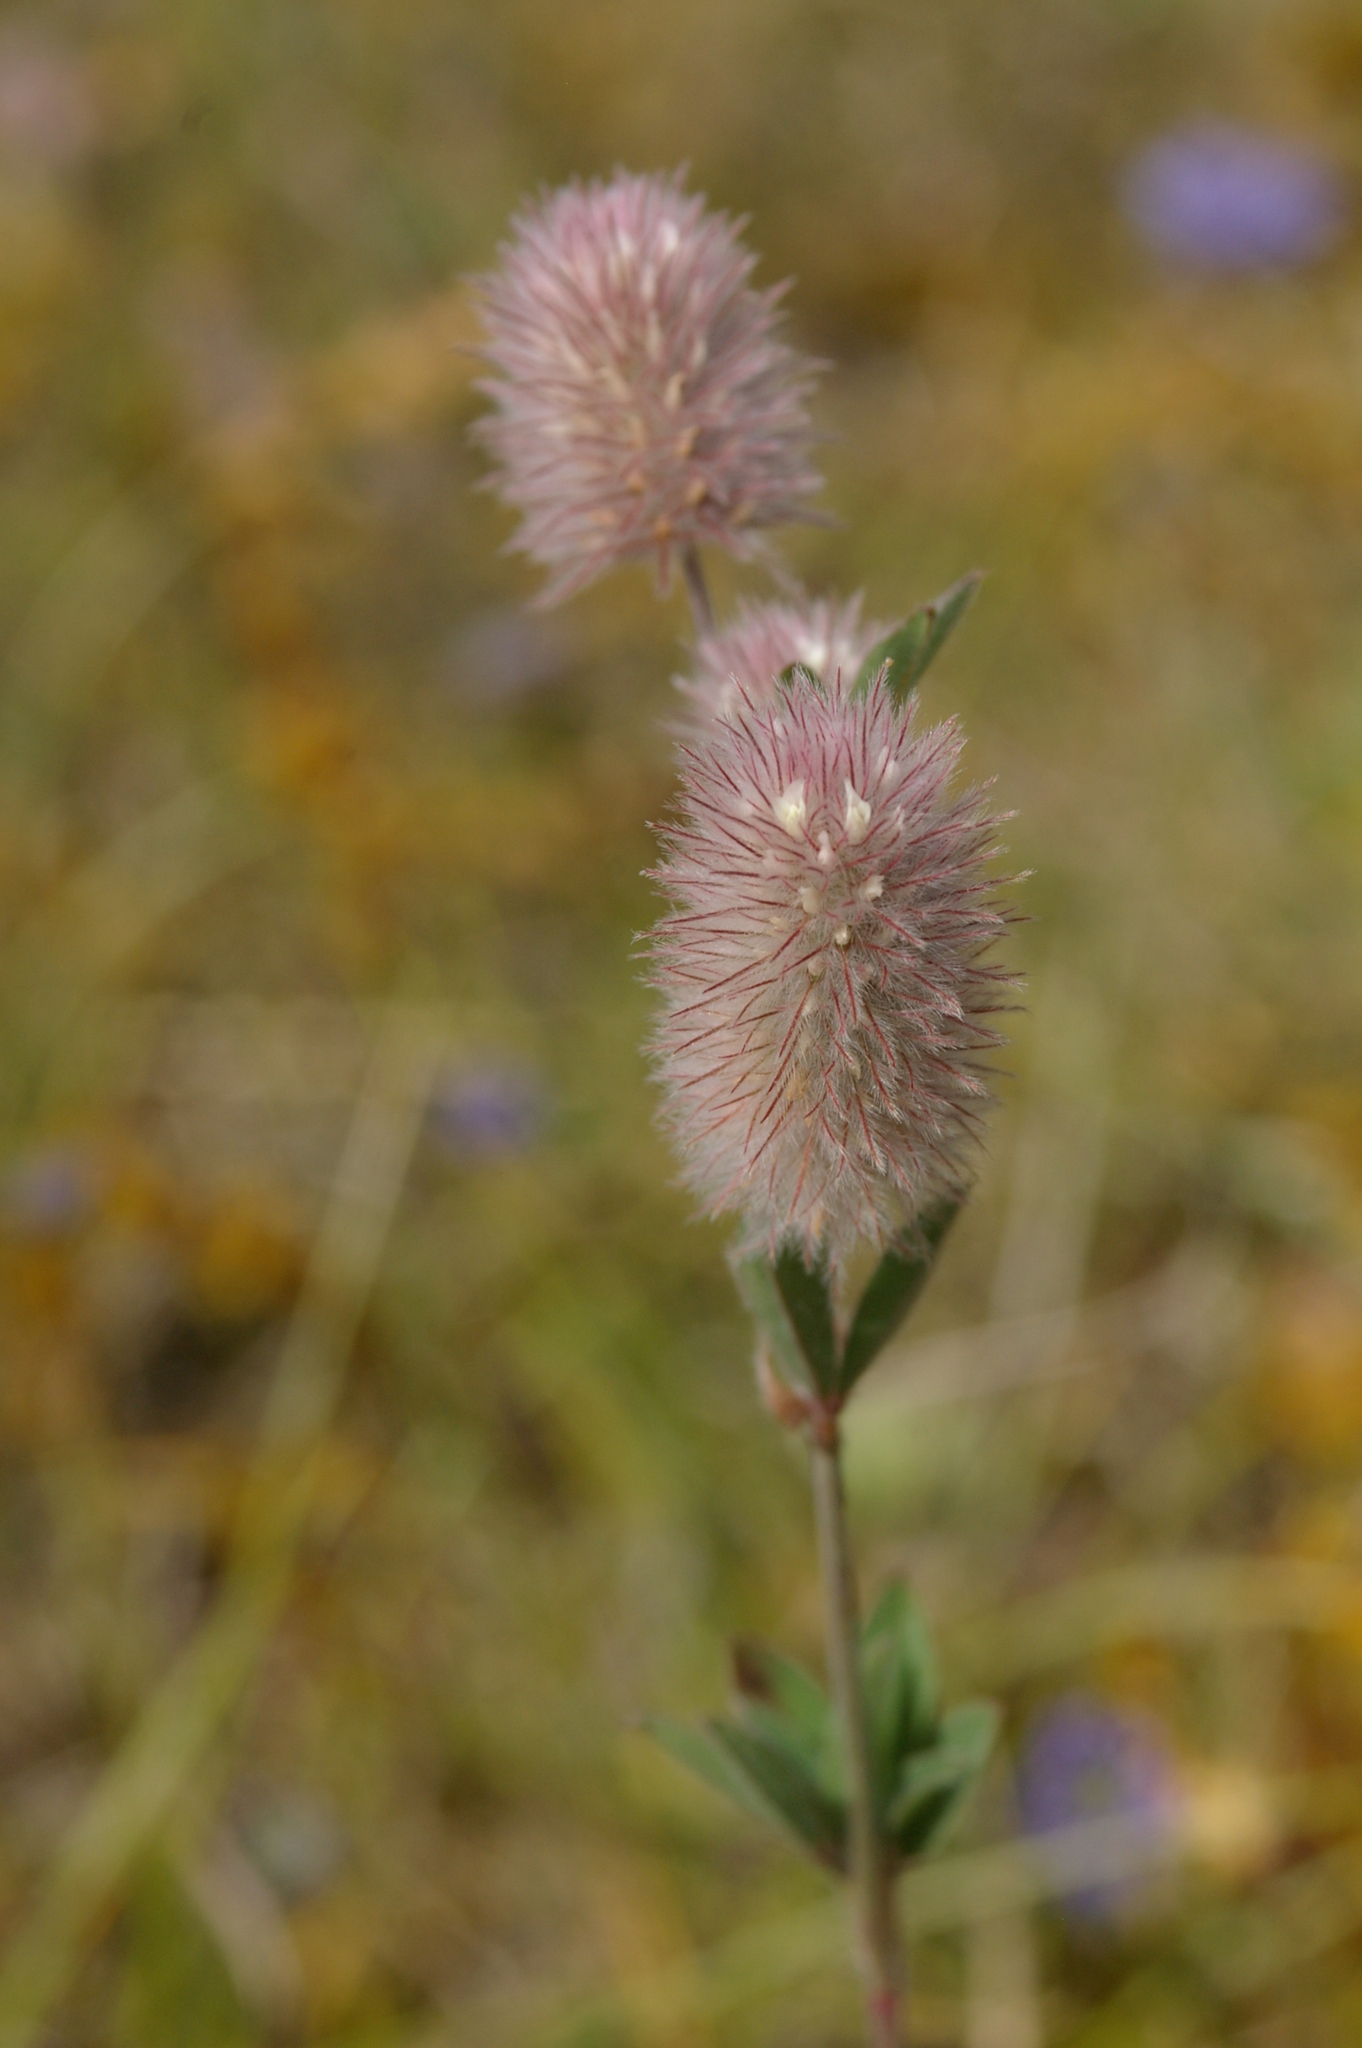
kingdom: Plantae
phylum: Tracheophyta
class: Magnoliopsida
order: Fabales
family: Fabaceae
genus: Trifolium
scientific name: Trifolium arvense
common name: Hare's-foot clover
